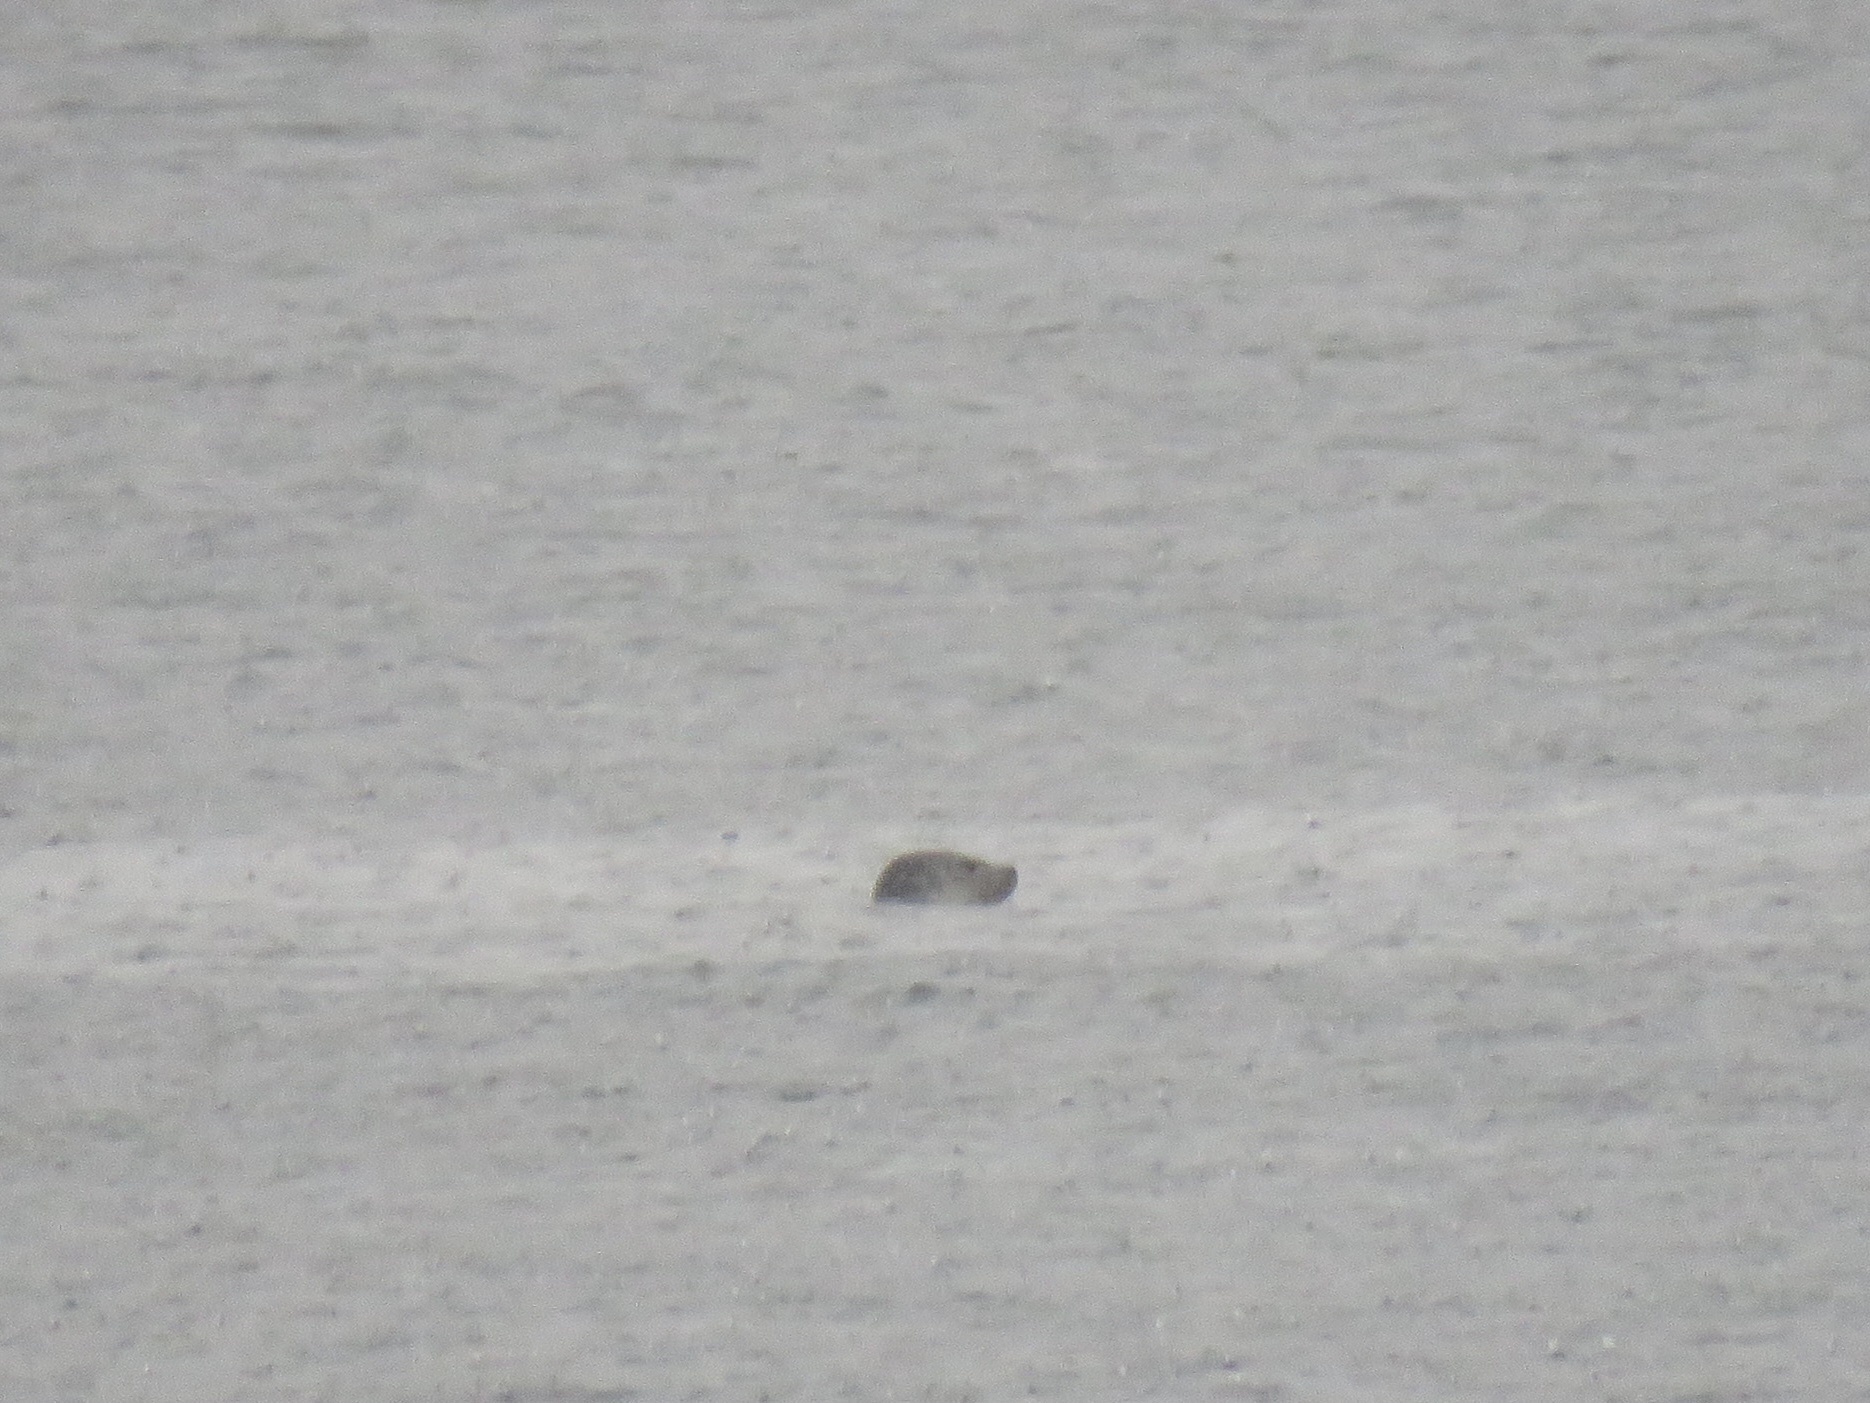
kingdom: Animalia
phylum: Chordata
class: Mammalia
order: Carnivora
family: Phocidae
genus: Phoca
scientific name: Phoca vitulina
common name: Harbor seal
